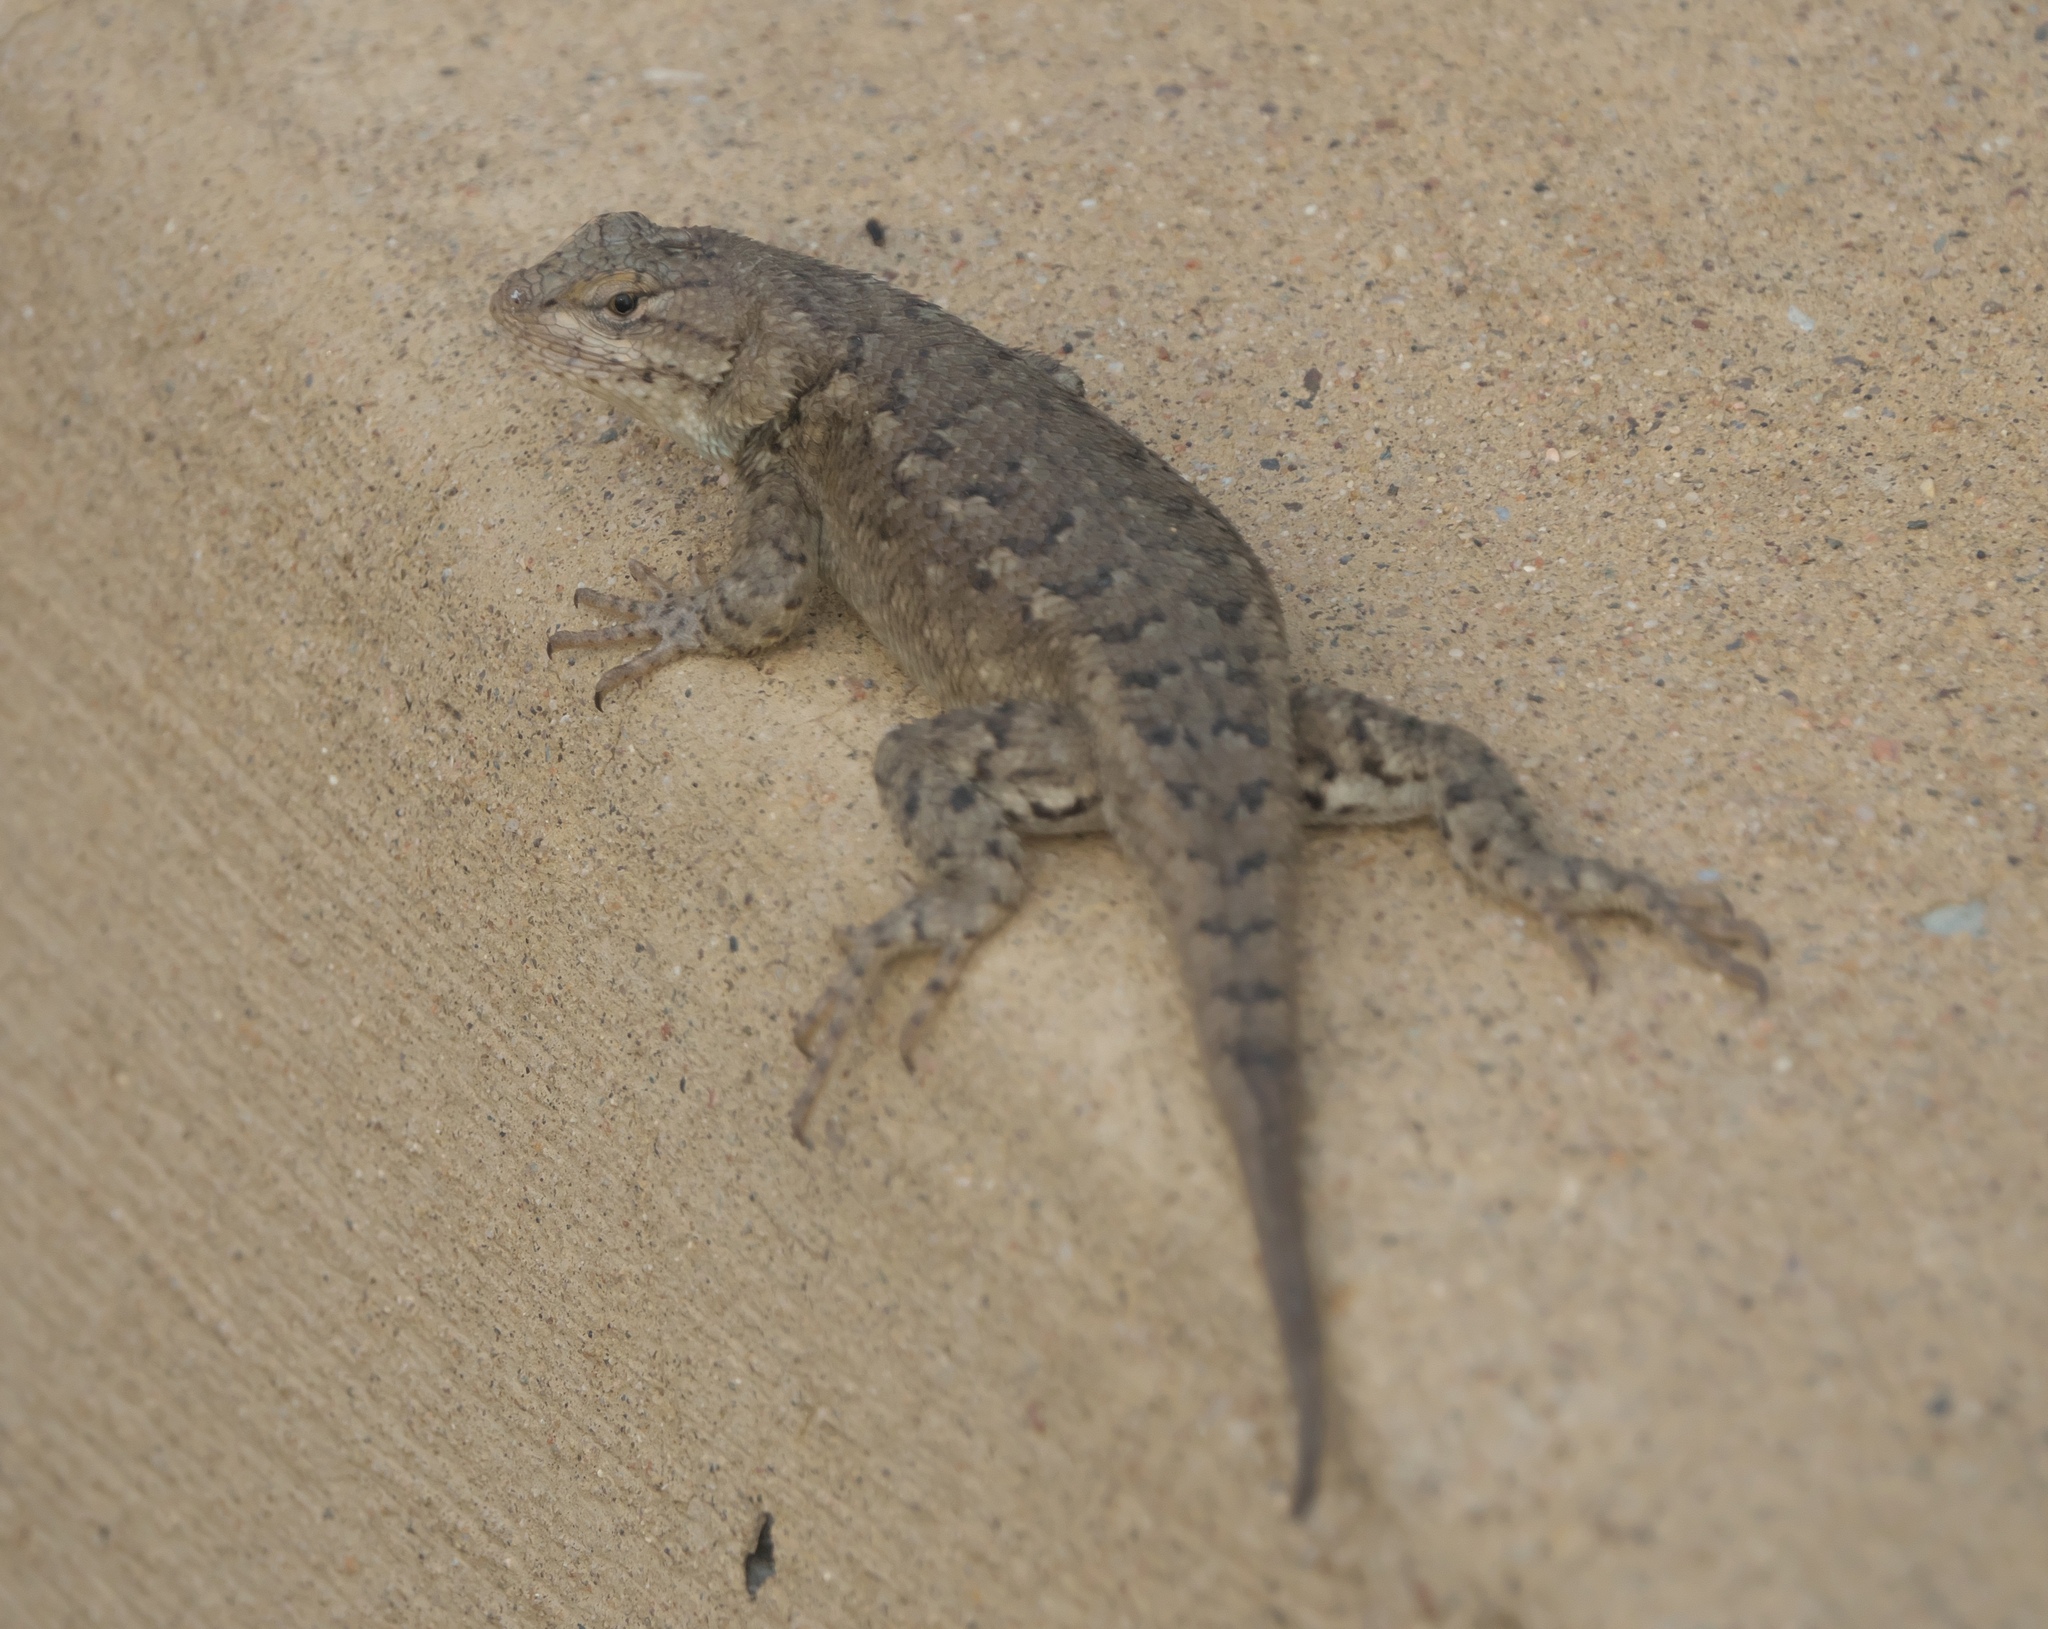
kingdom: Animalia
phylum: Chordata
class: Squamata
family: Phrynosomatidae
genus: Sceloporus
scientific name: Sceloporus
